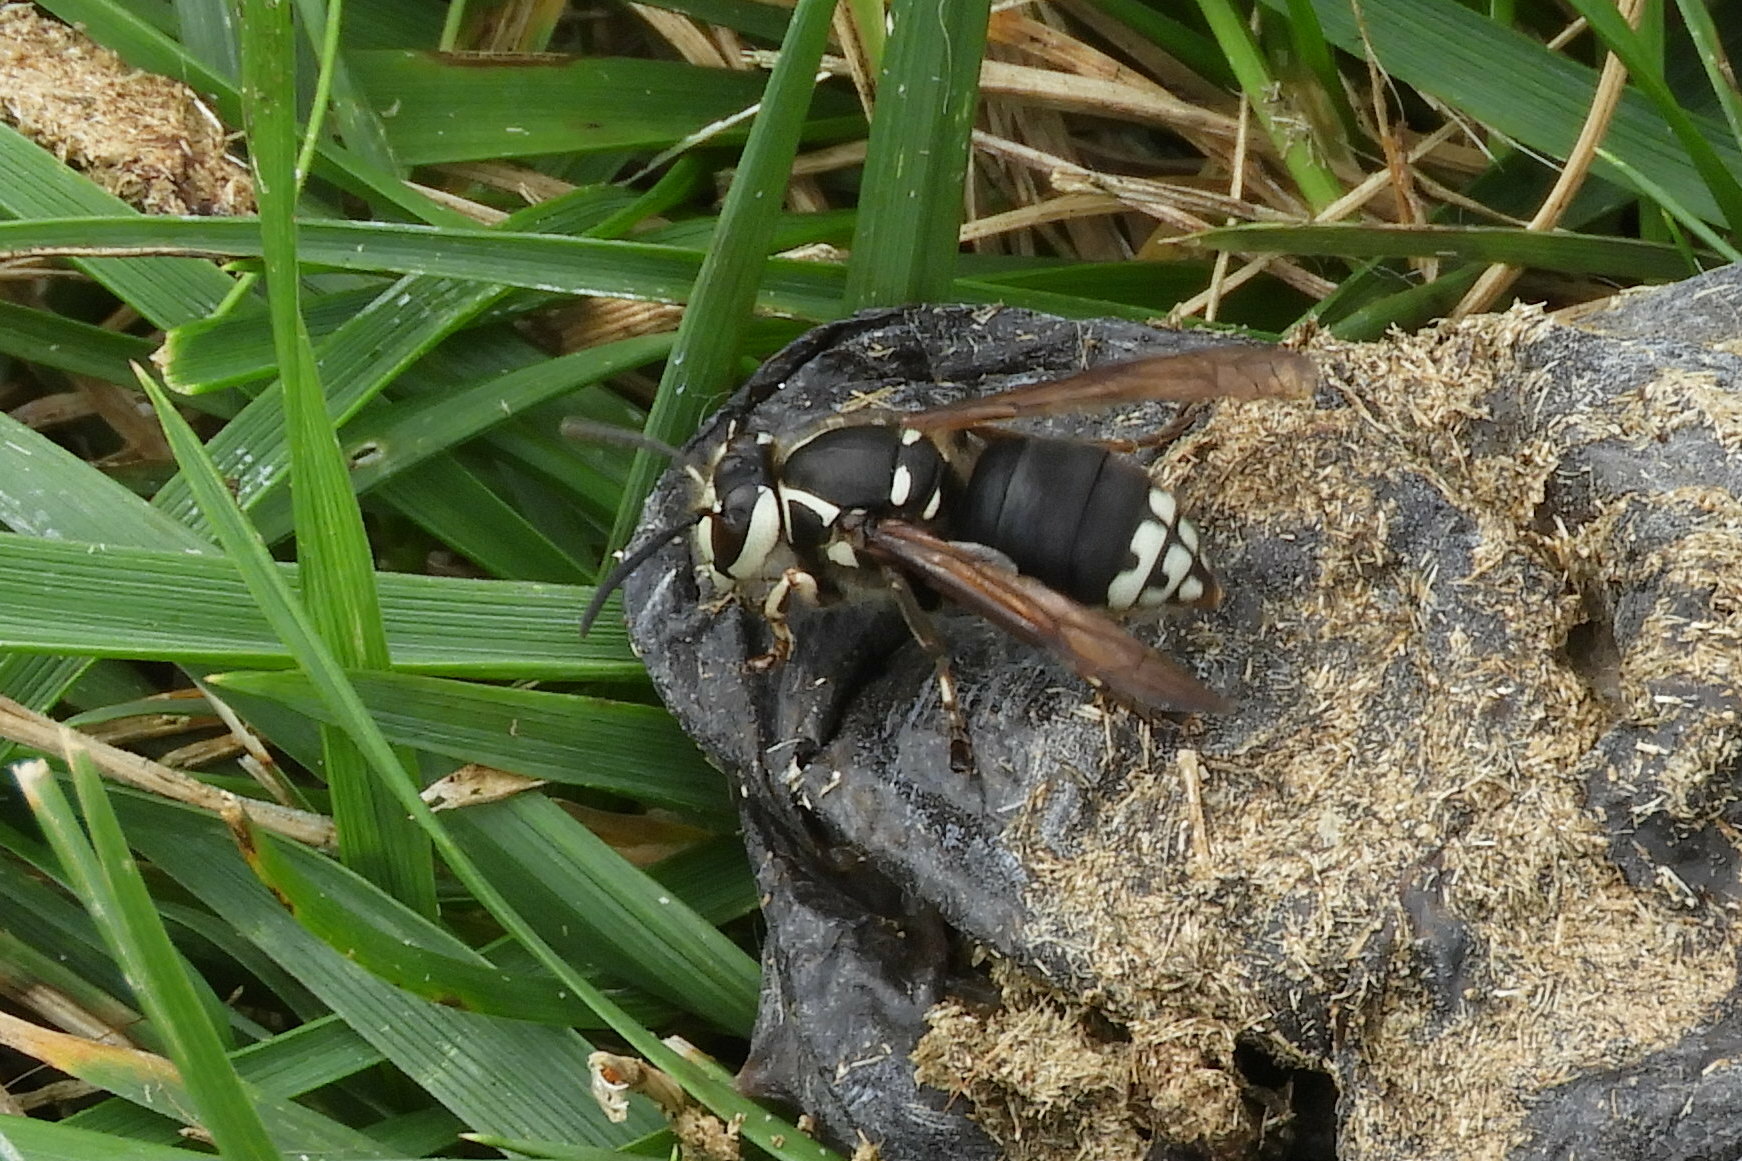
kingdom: Animalia
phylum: Arthropoda
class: Insecta
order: Hymenoptera
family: Vespidae
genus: Dolichovespula
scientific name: Dolichovespula maculata
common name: Bald-faced hornet
